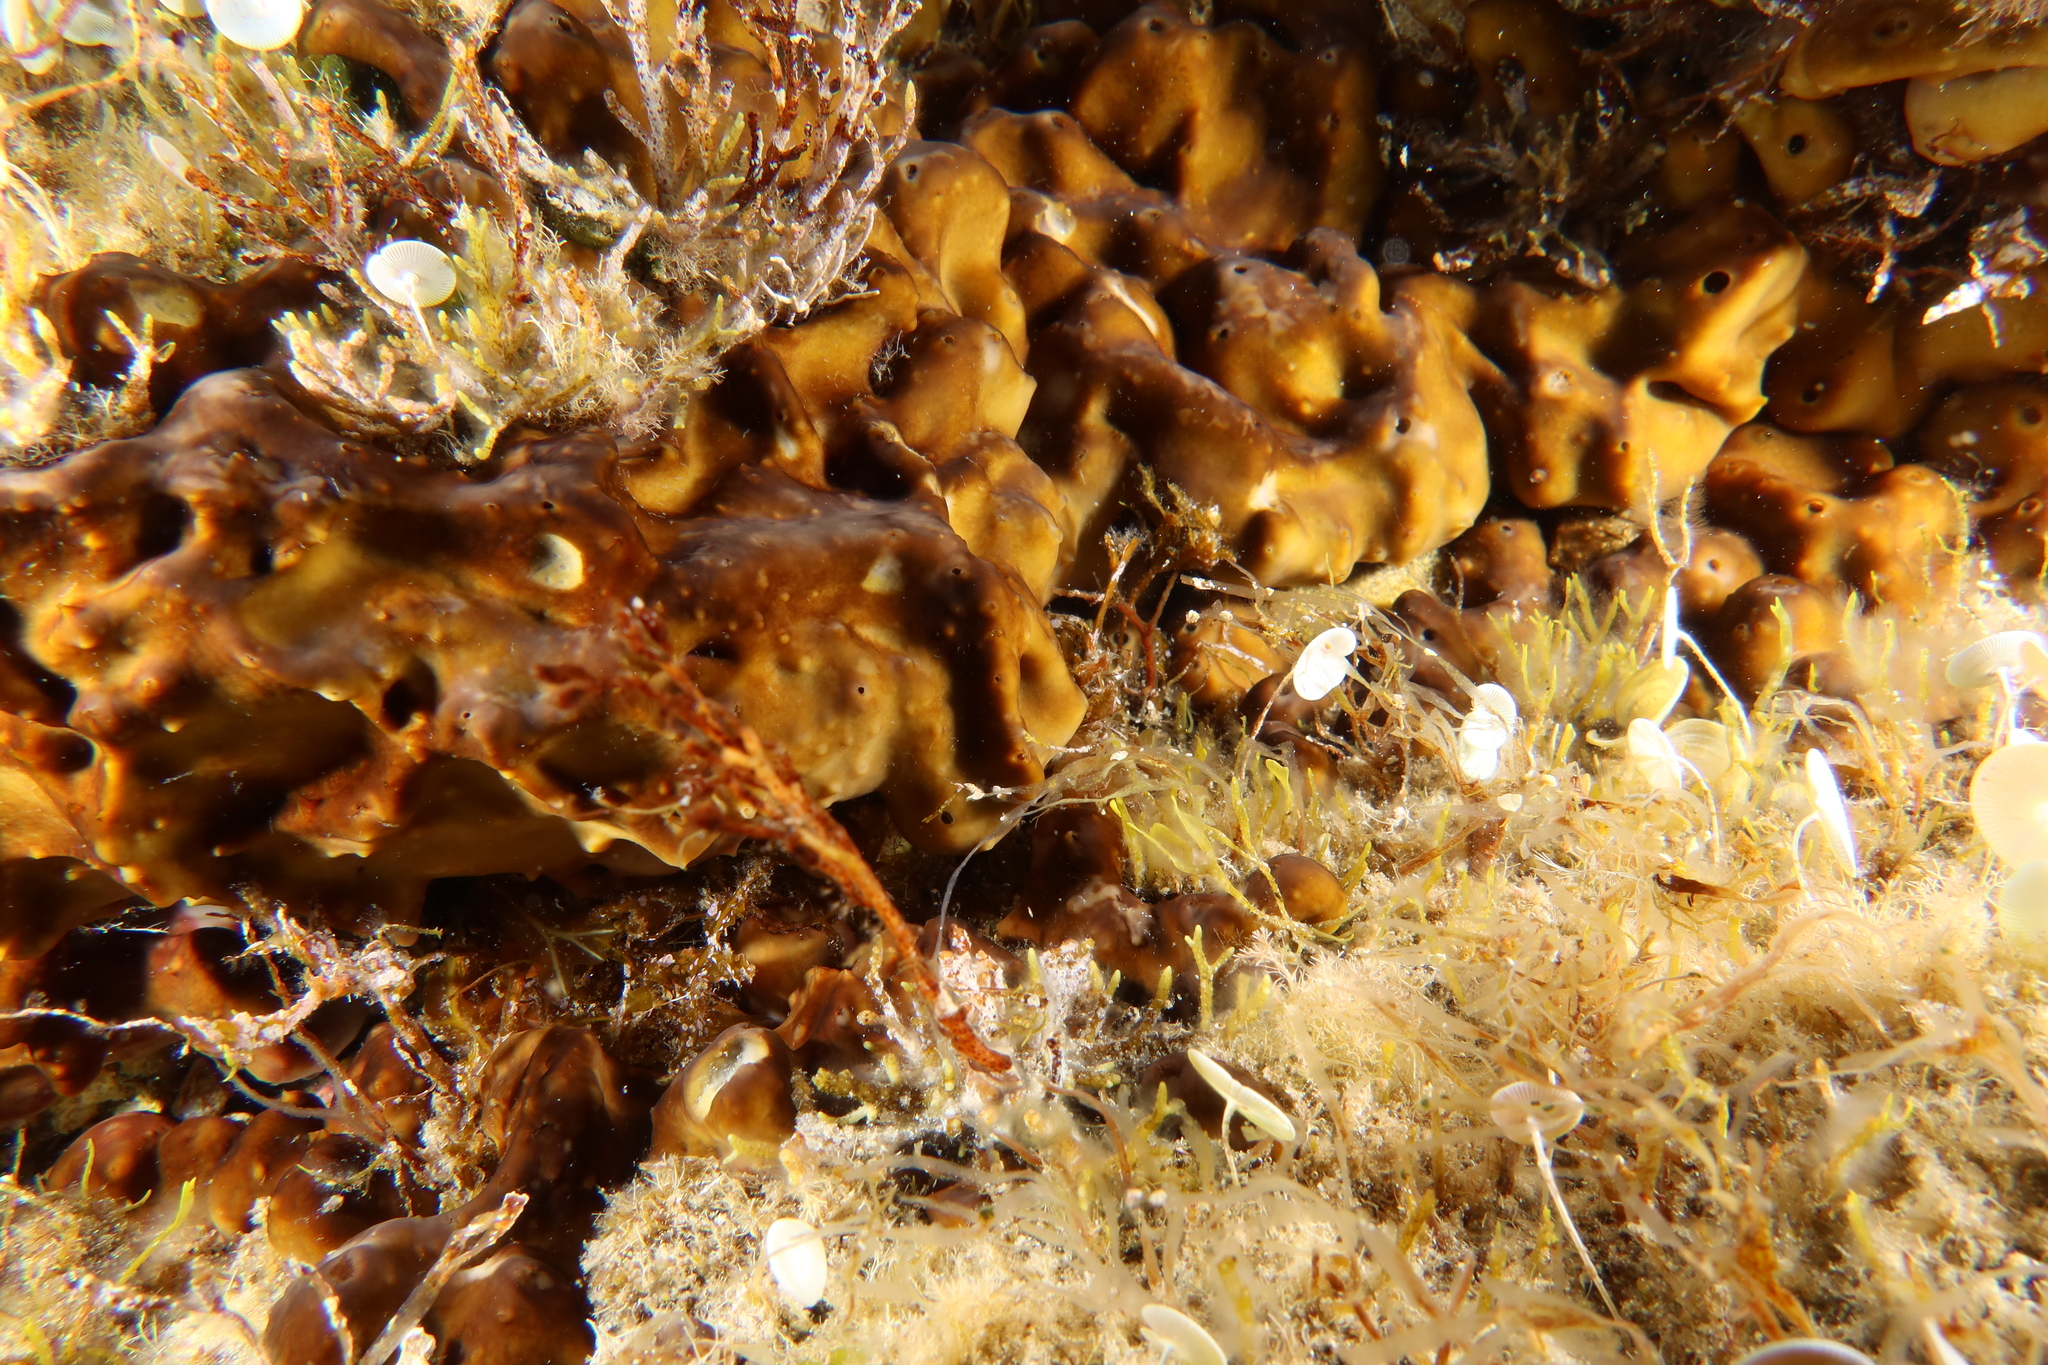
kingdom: Animalia
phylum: Porifera
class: Demospongiae
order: Chondrillida
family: Chondrillidae
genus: Chondrilla
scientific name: Chondrilla nucula
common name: Chicken liver sponge
